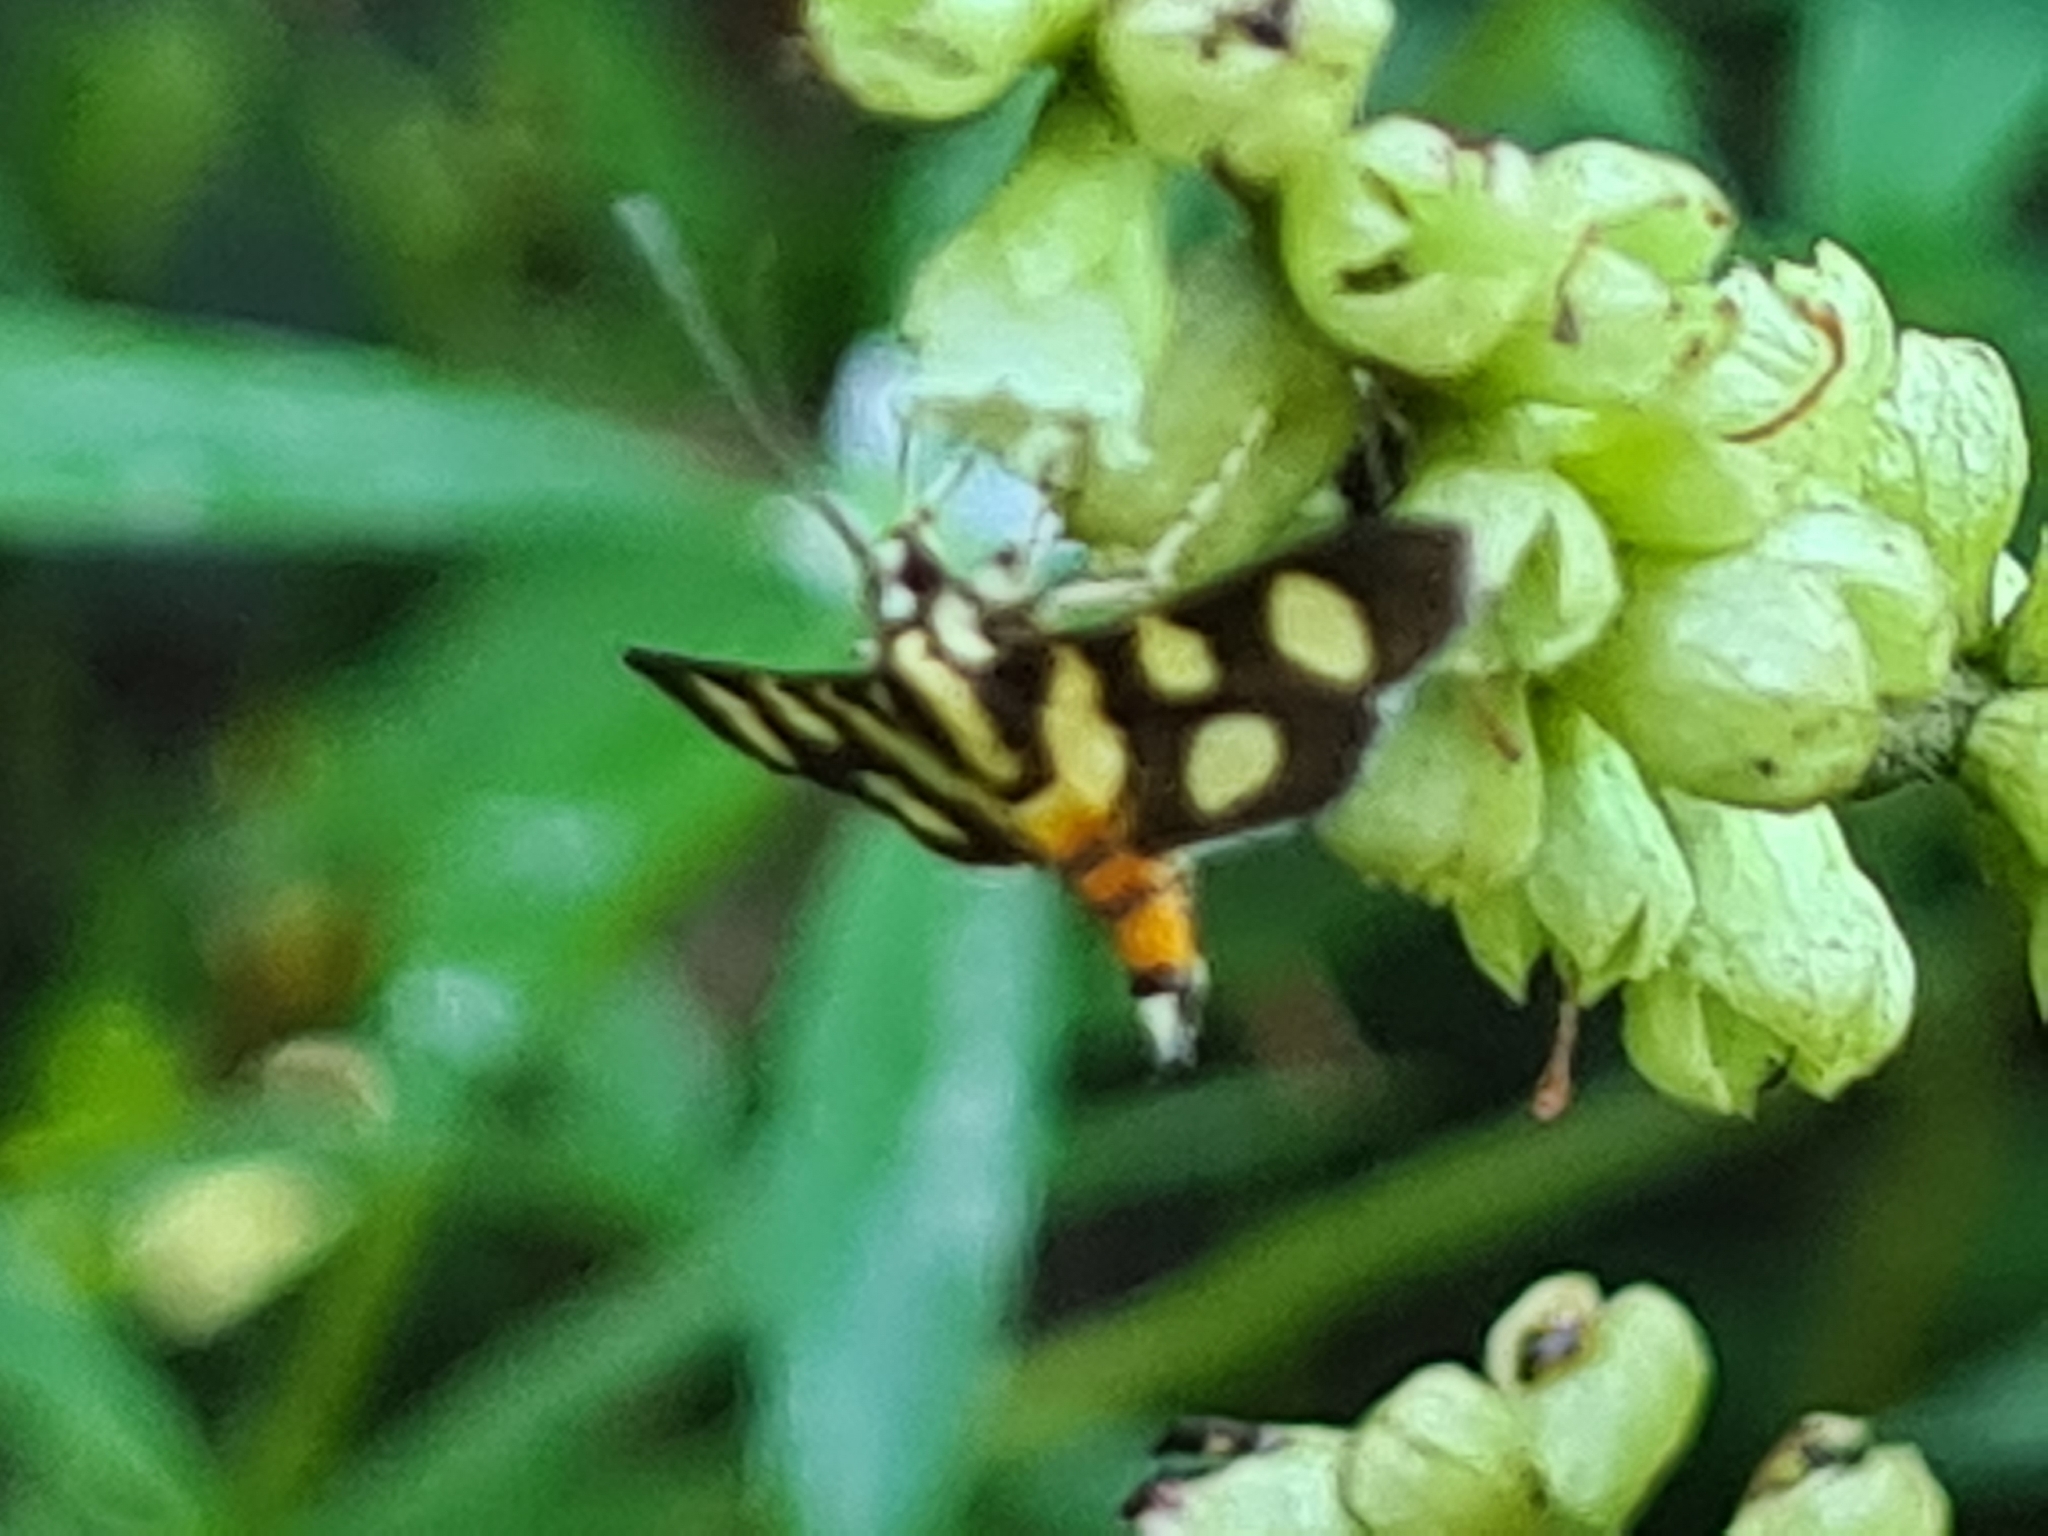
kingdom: Animalia
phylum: Arthropoda
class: Insecta
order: Lepidoptera
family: Crambidae
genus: Syngamia
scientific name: Syngamia florella
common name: Orange-spotted flower moth
